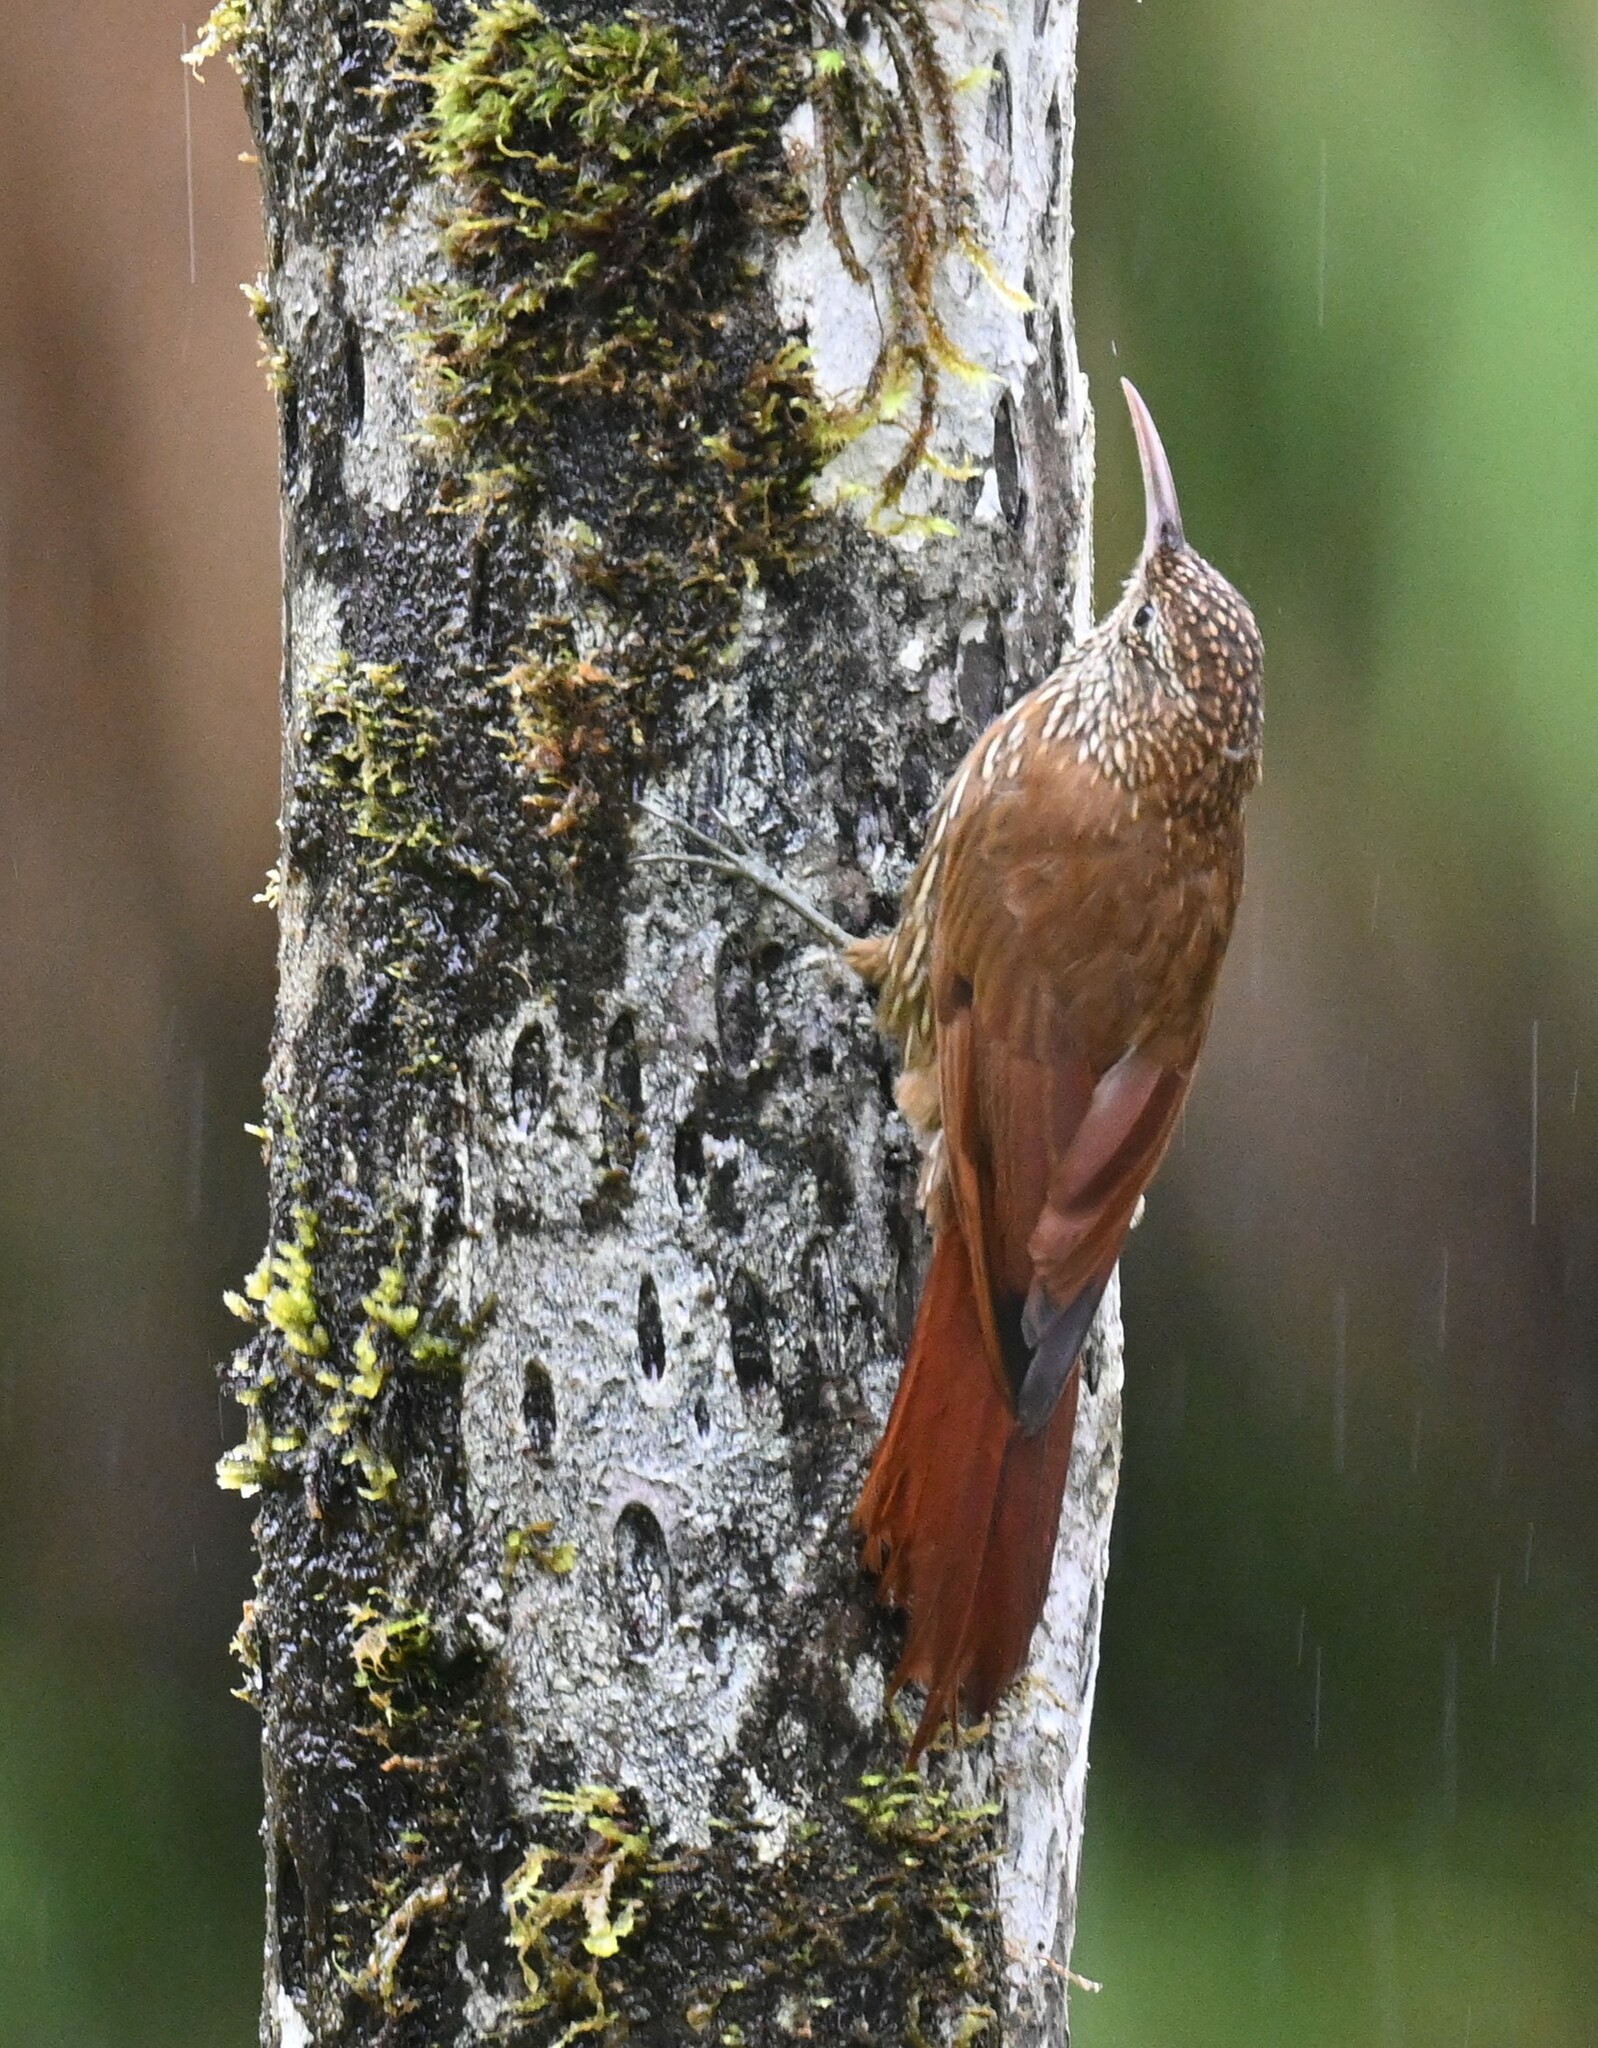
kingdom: Animalia
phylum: Chordata
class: Aves
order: Passeriformes
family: Furnariidae
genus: Lepidocolaptes
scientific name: Lepidocolaptes lacrymiger
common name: Montane woodcreeper
